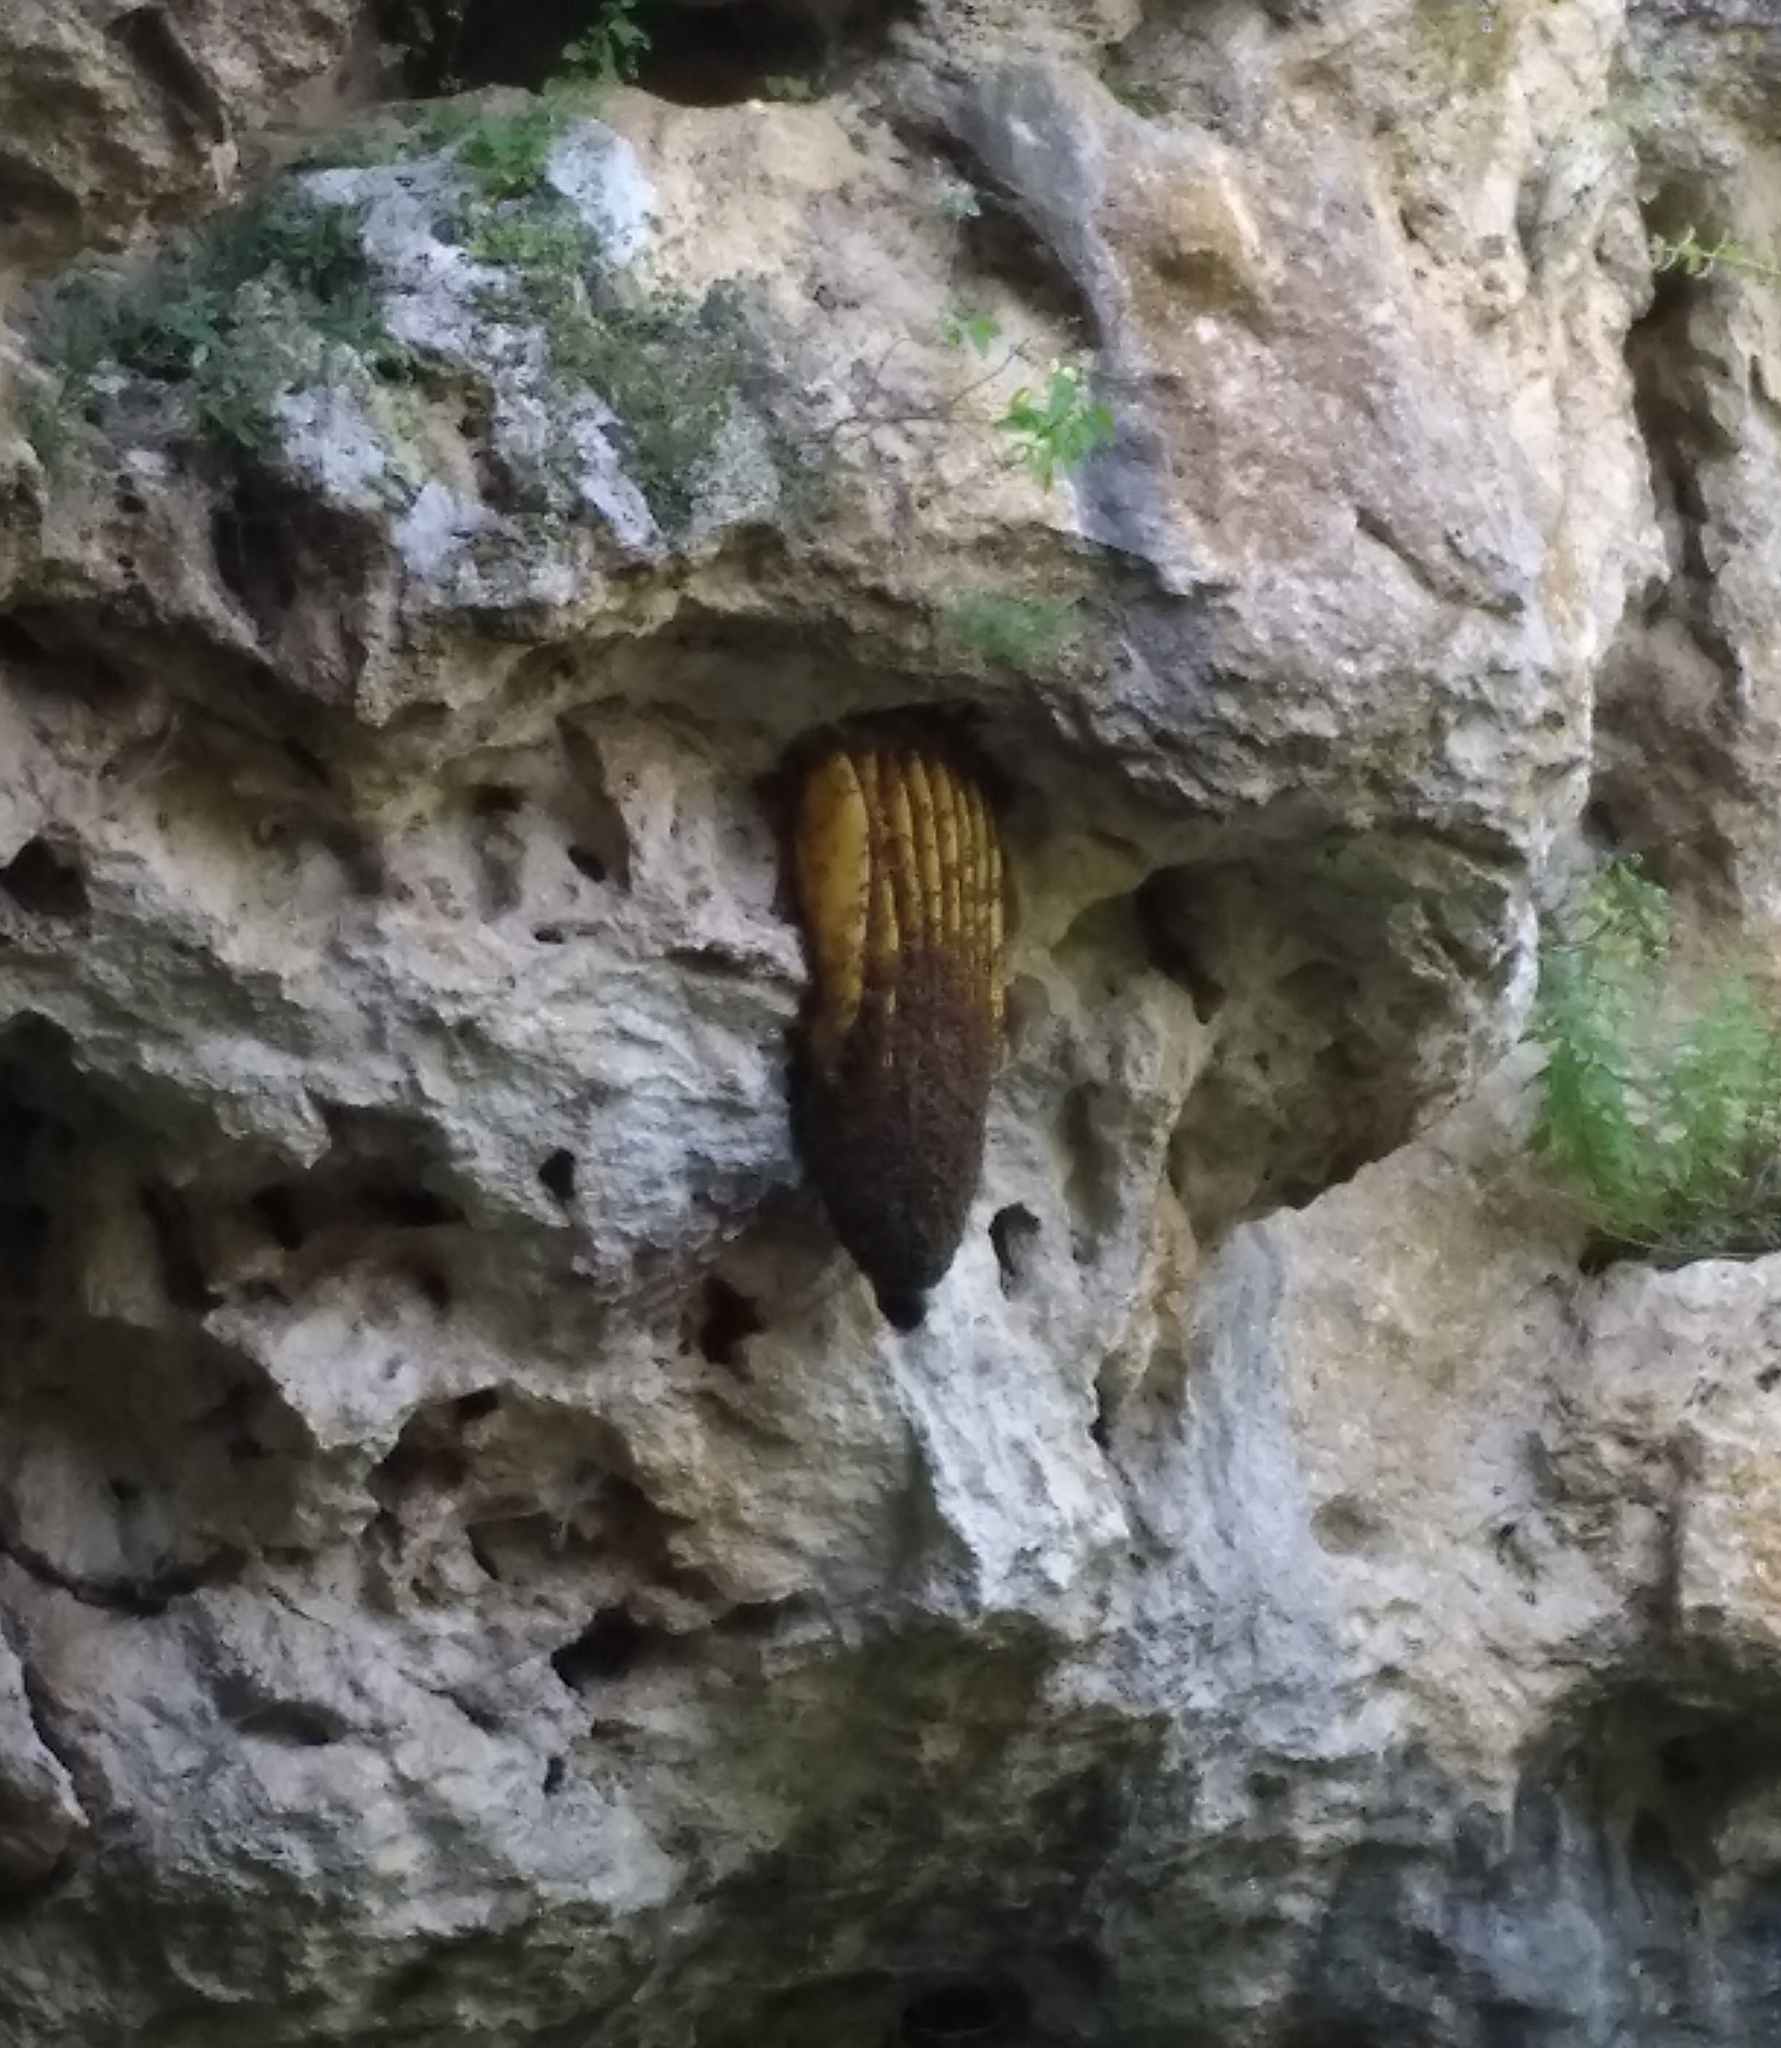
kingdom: Animalia
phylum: Arthropoda
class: Insecta
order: Hymenoptera
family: Apidae
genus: Apis
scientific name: Apis mellifera
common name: Honey bee
